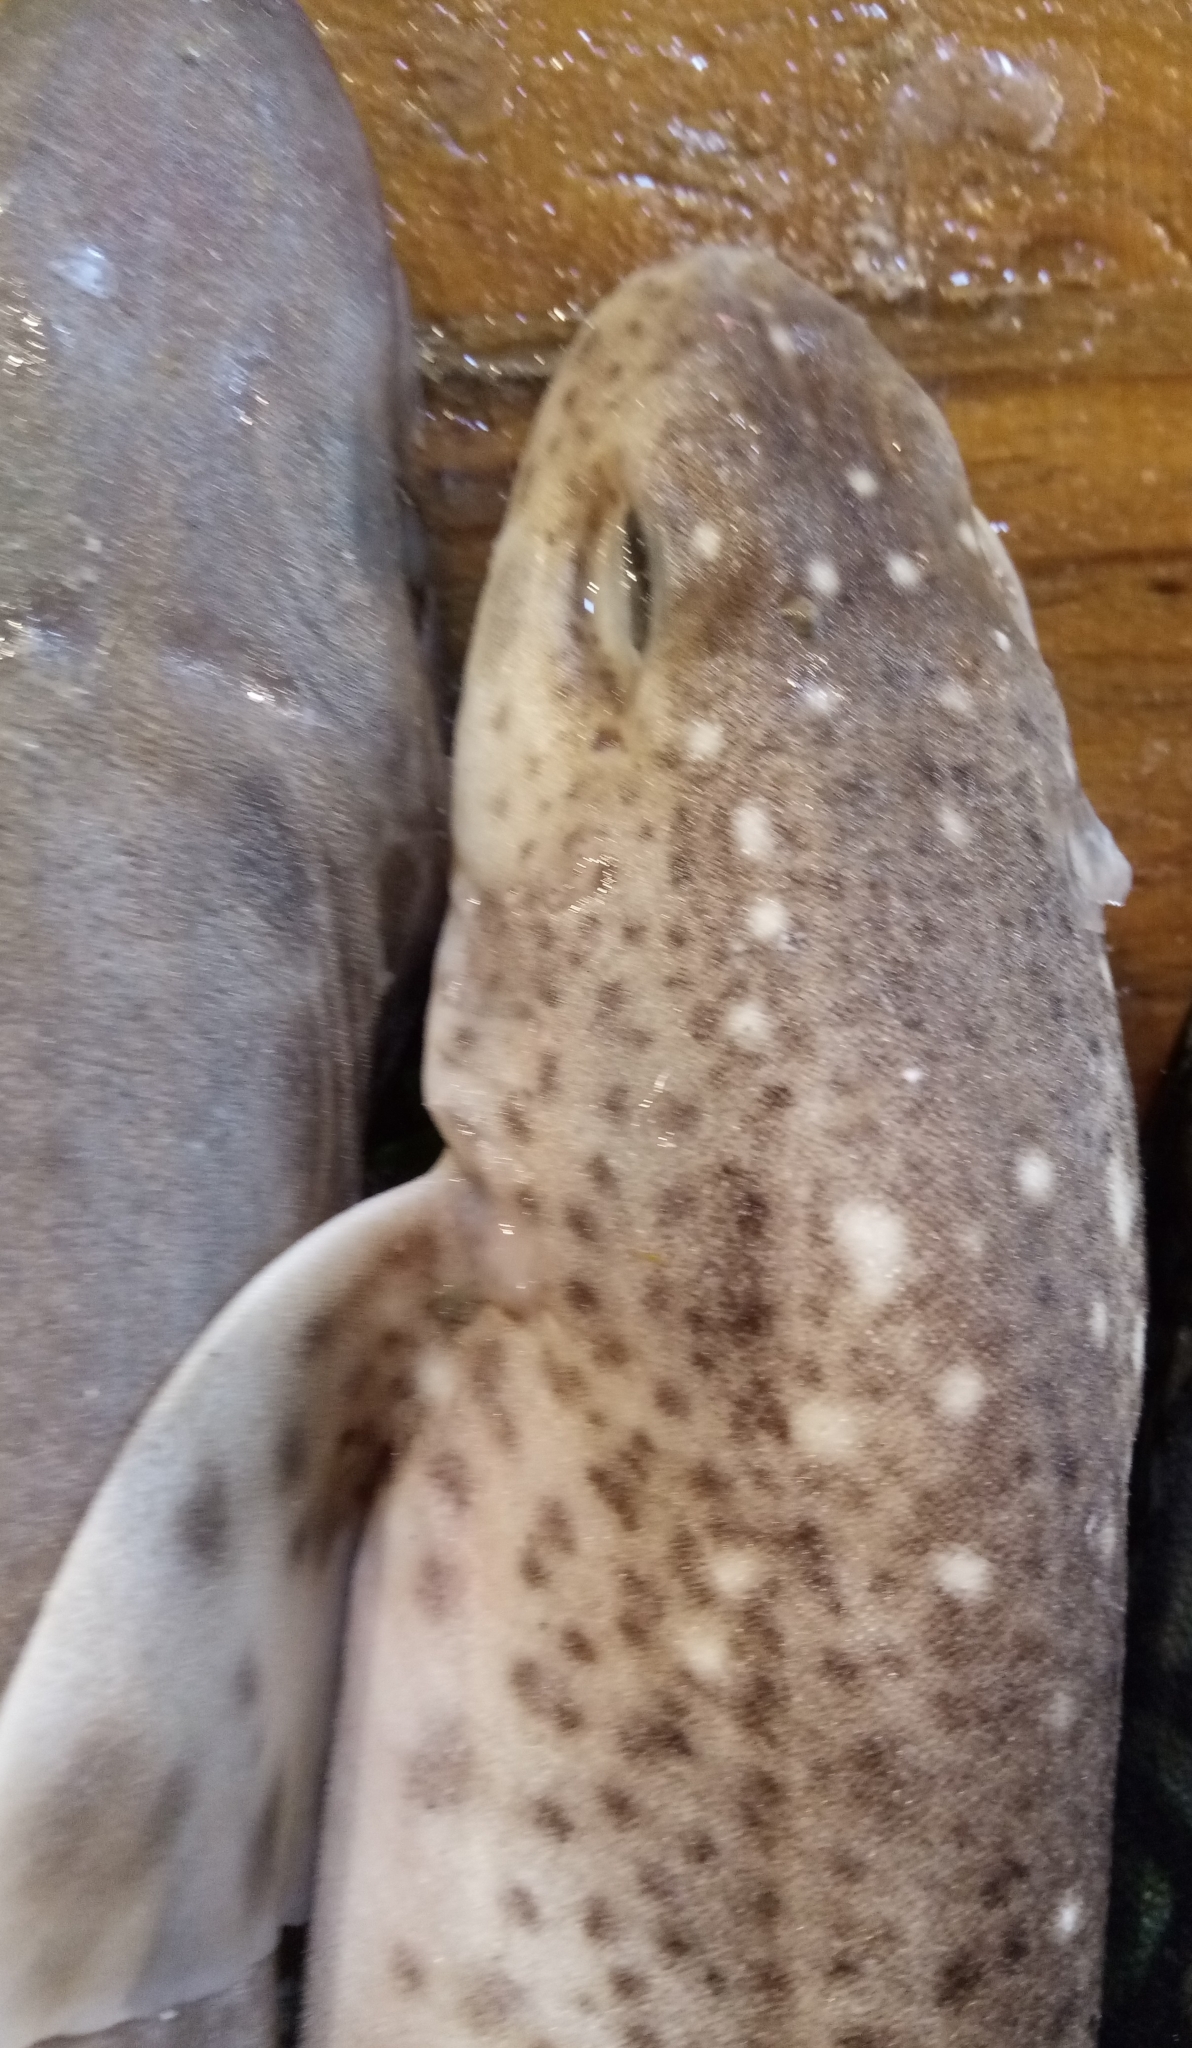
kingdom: Animalia
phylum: Chordata
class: Elasmobranchii
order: Carcharhiniformes
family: Scyliorhinidae
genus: Scyliorhinus
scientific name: Scyliorhinus canicula
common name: Lesser spotted dogfish
